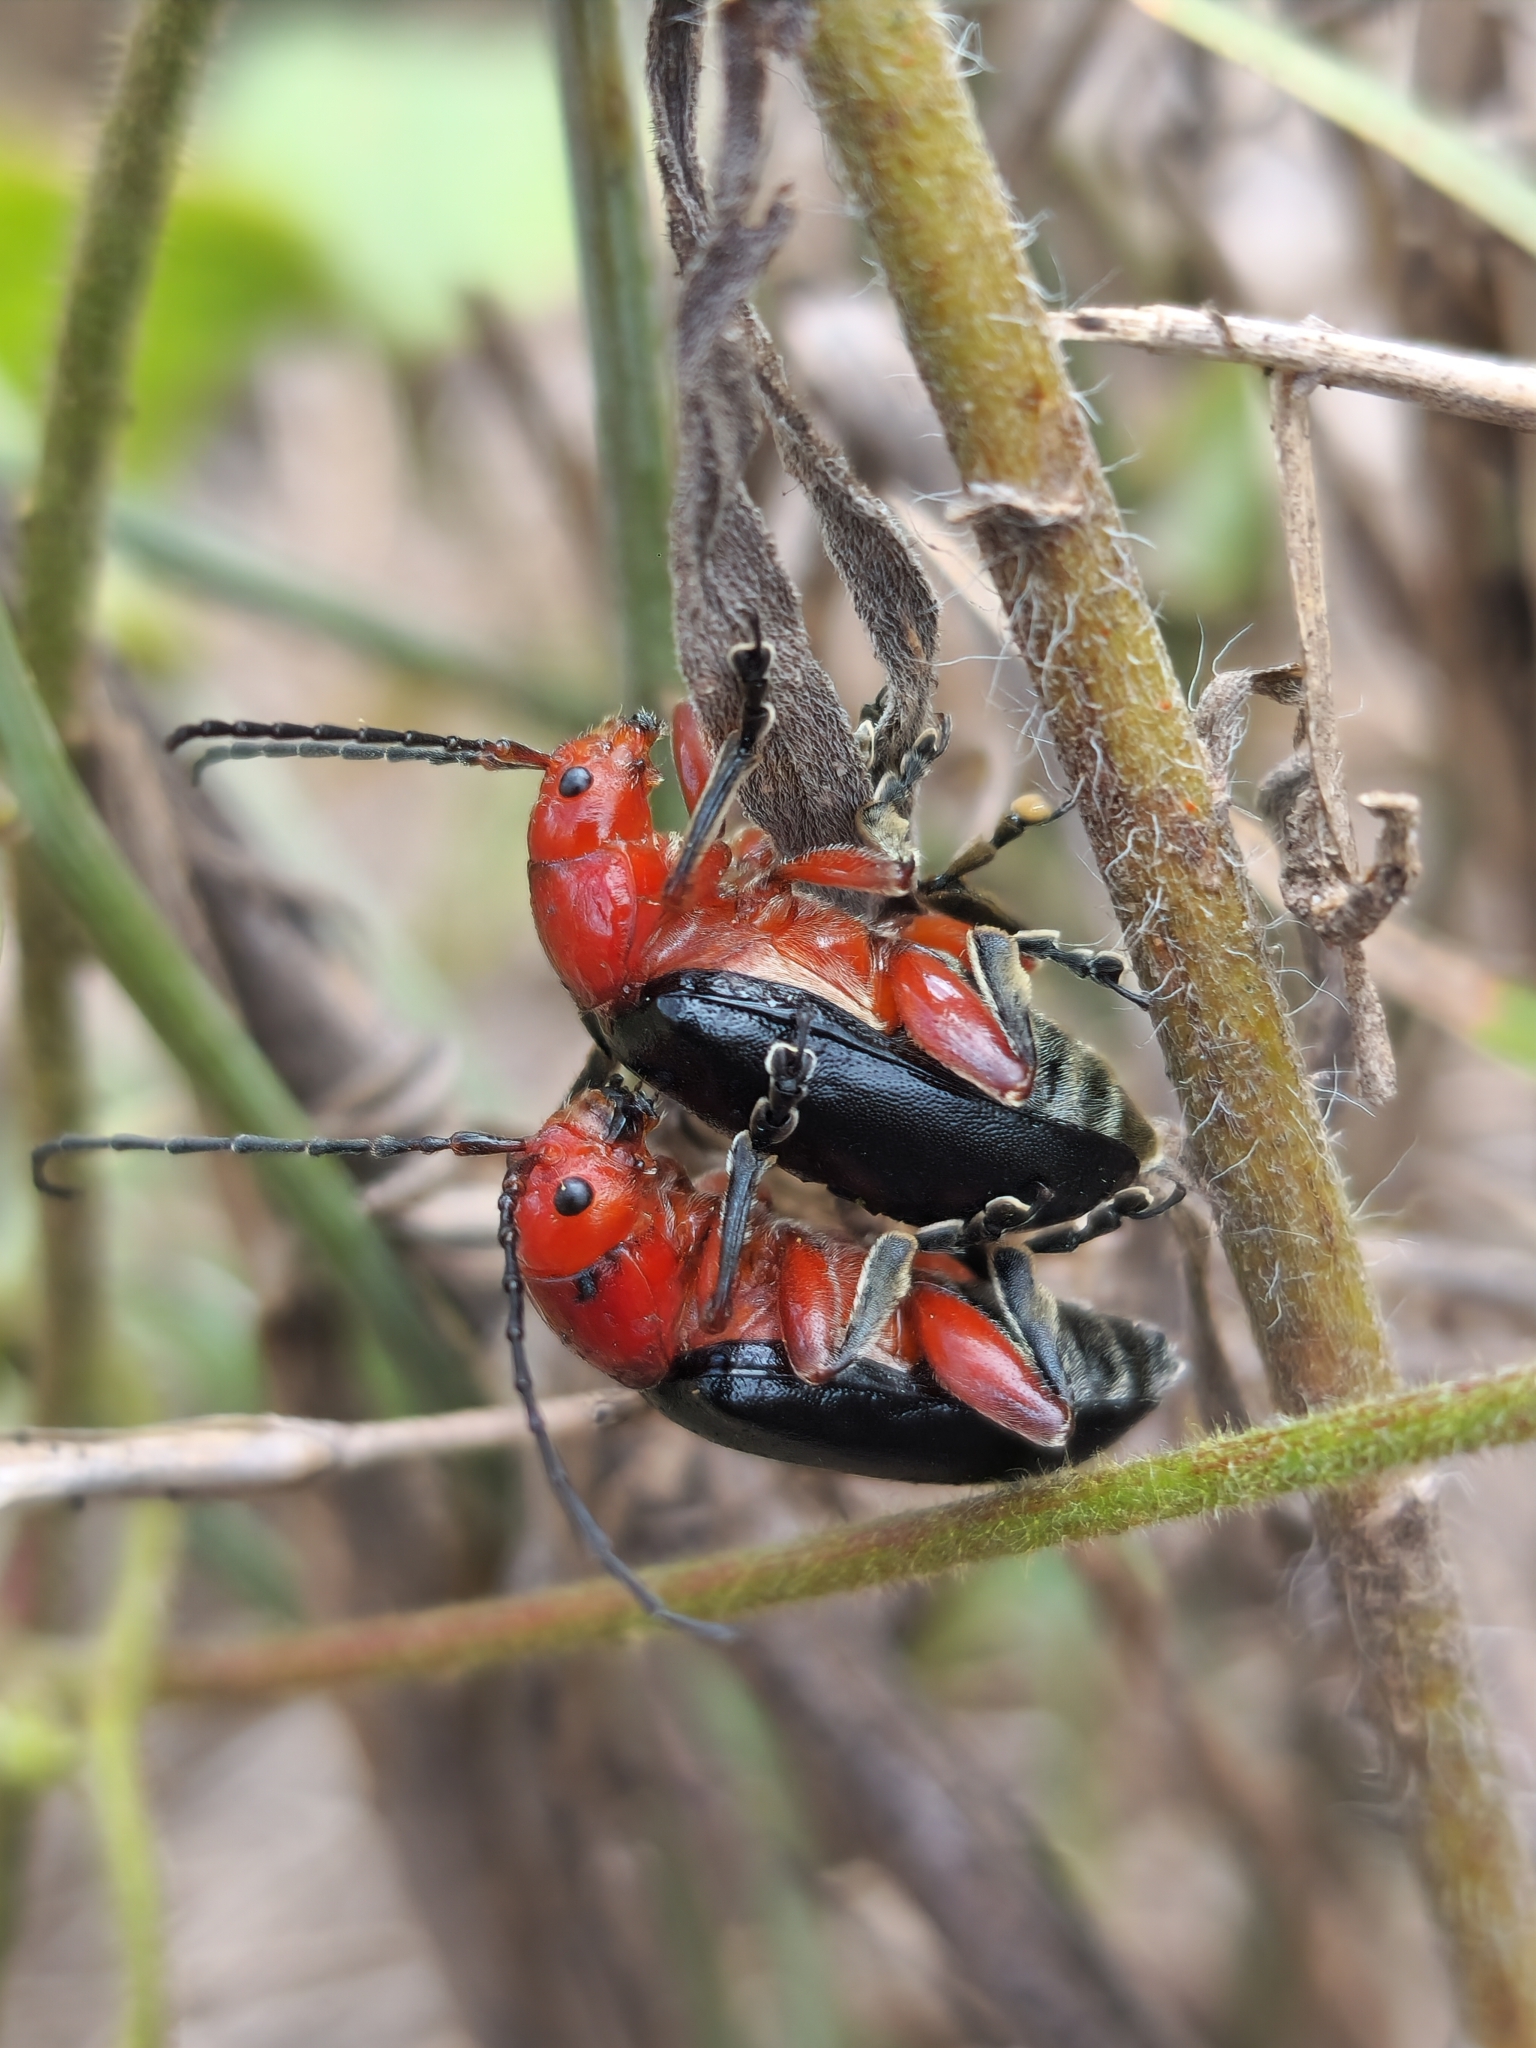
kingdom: Animalia
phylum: Arthropoda
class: Insecta
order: Coleoptera
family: Chrysomelidae
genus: Cacoscelis
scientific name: Cacoscelis
